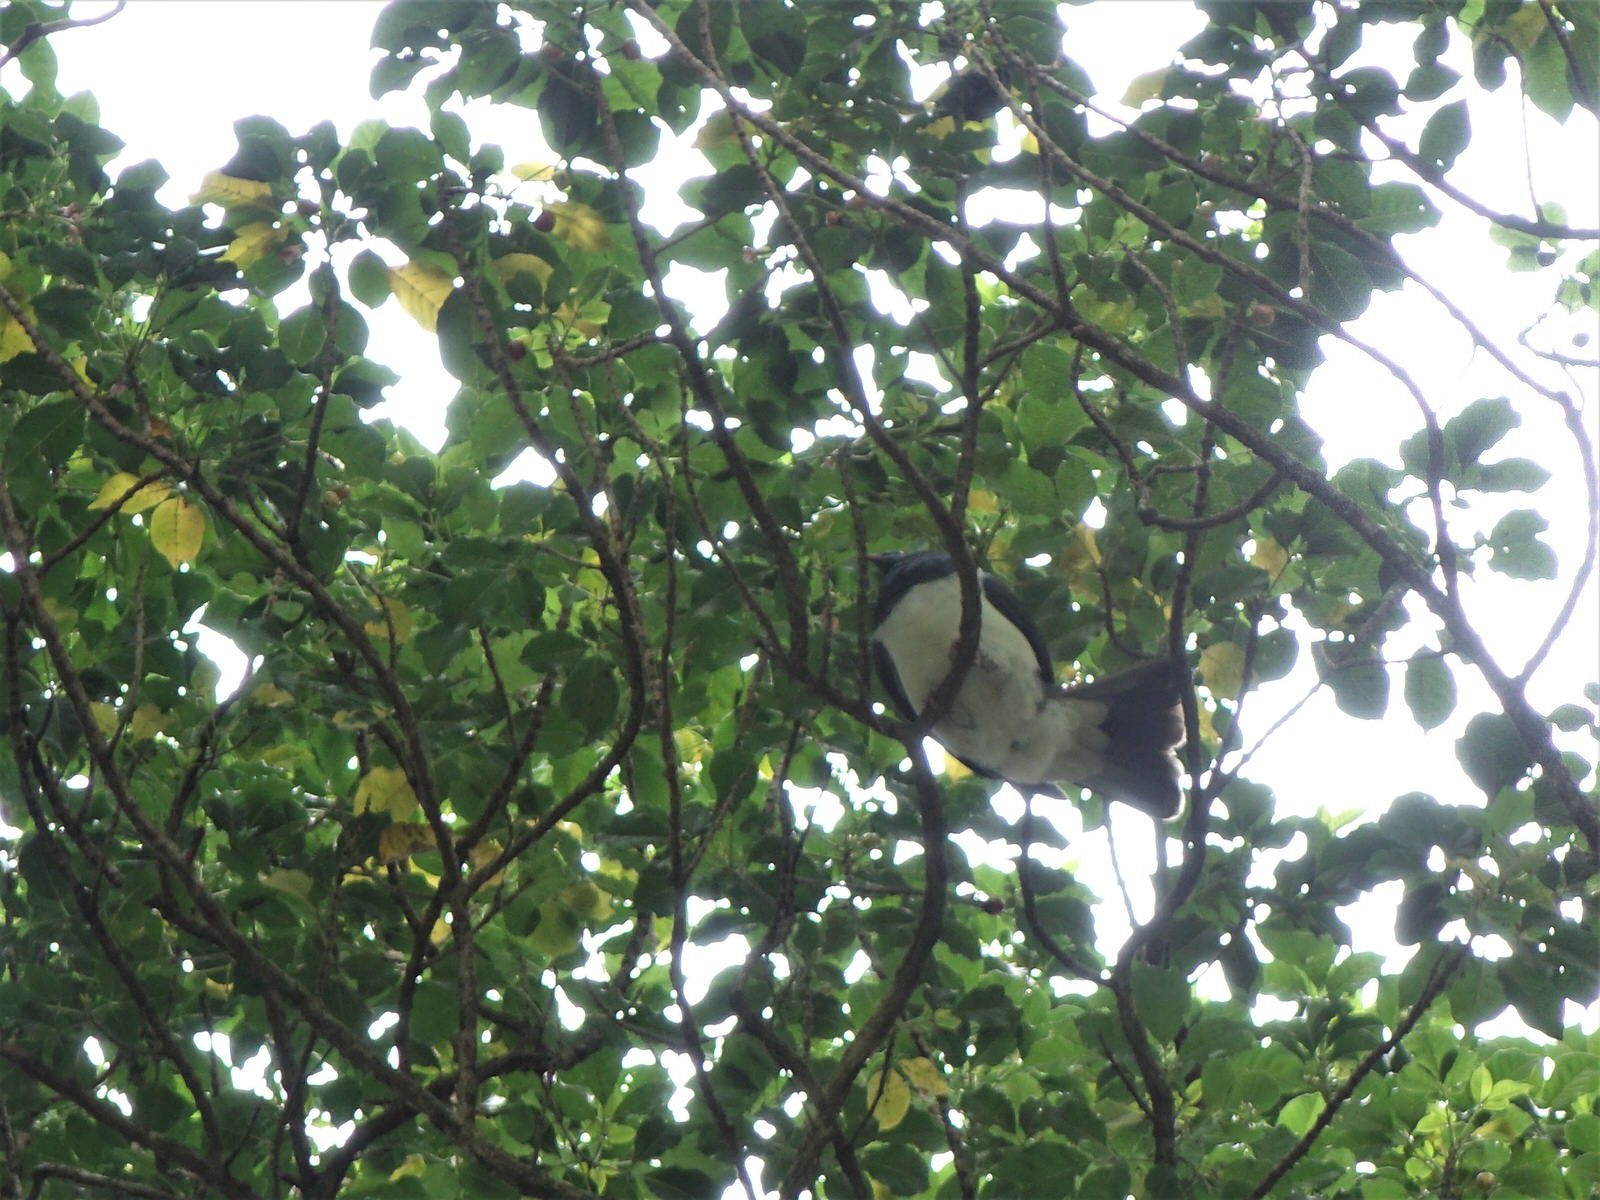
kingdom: Animalia
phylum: Chordata
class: Aves
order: Columbiformes
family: Columbidae
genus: Hemiphaga
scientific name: Hemiphaga novaeseelandiae
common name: New zealand pigeon
